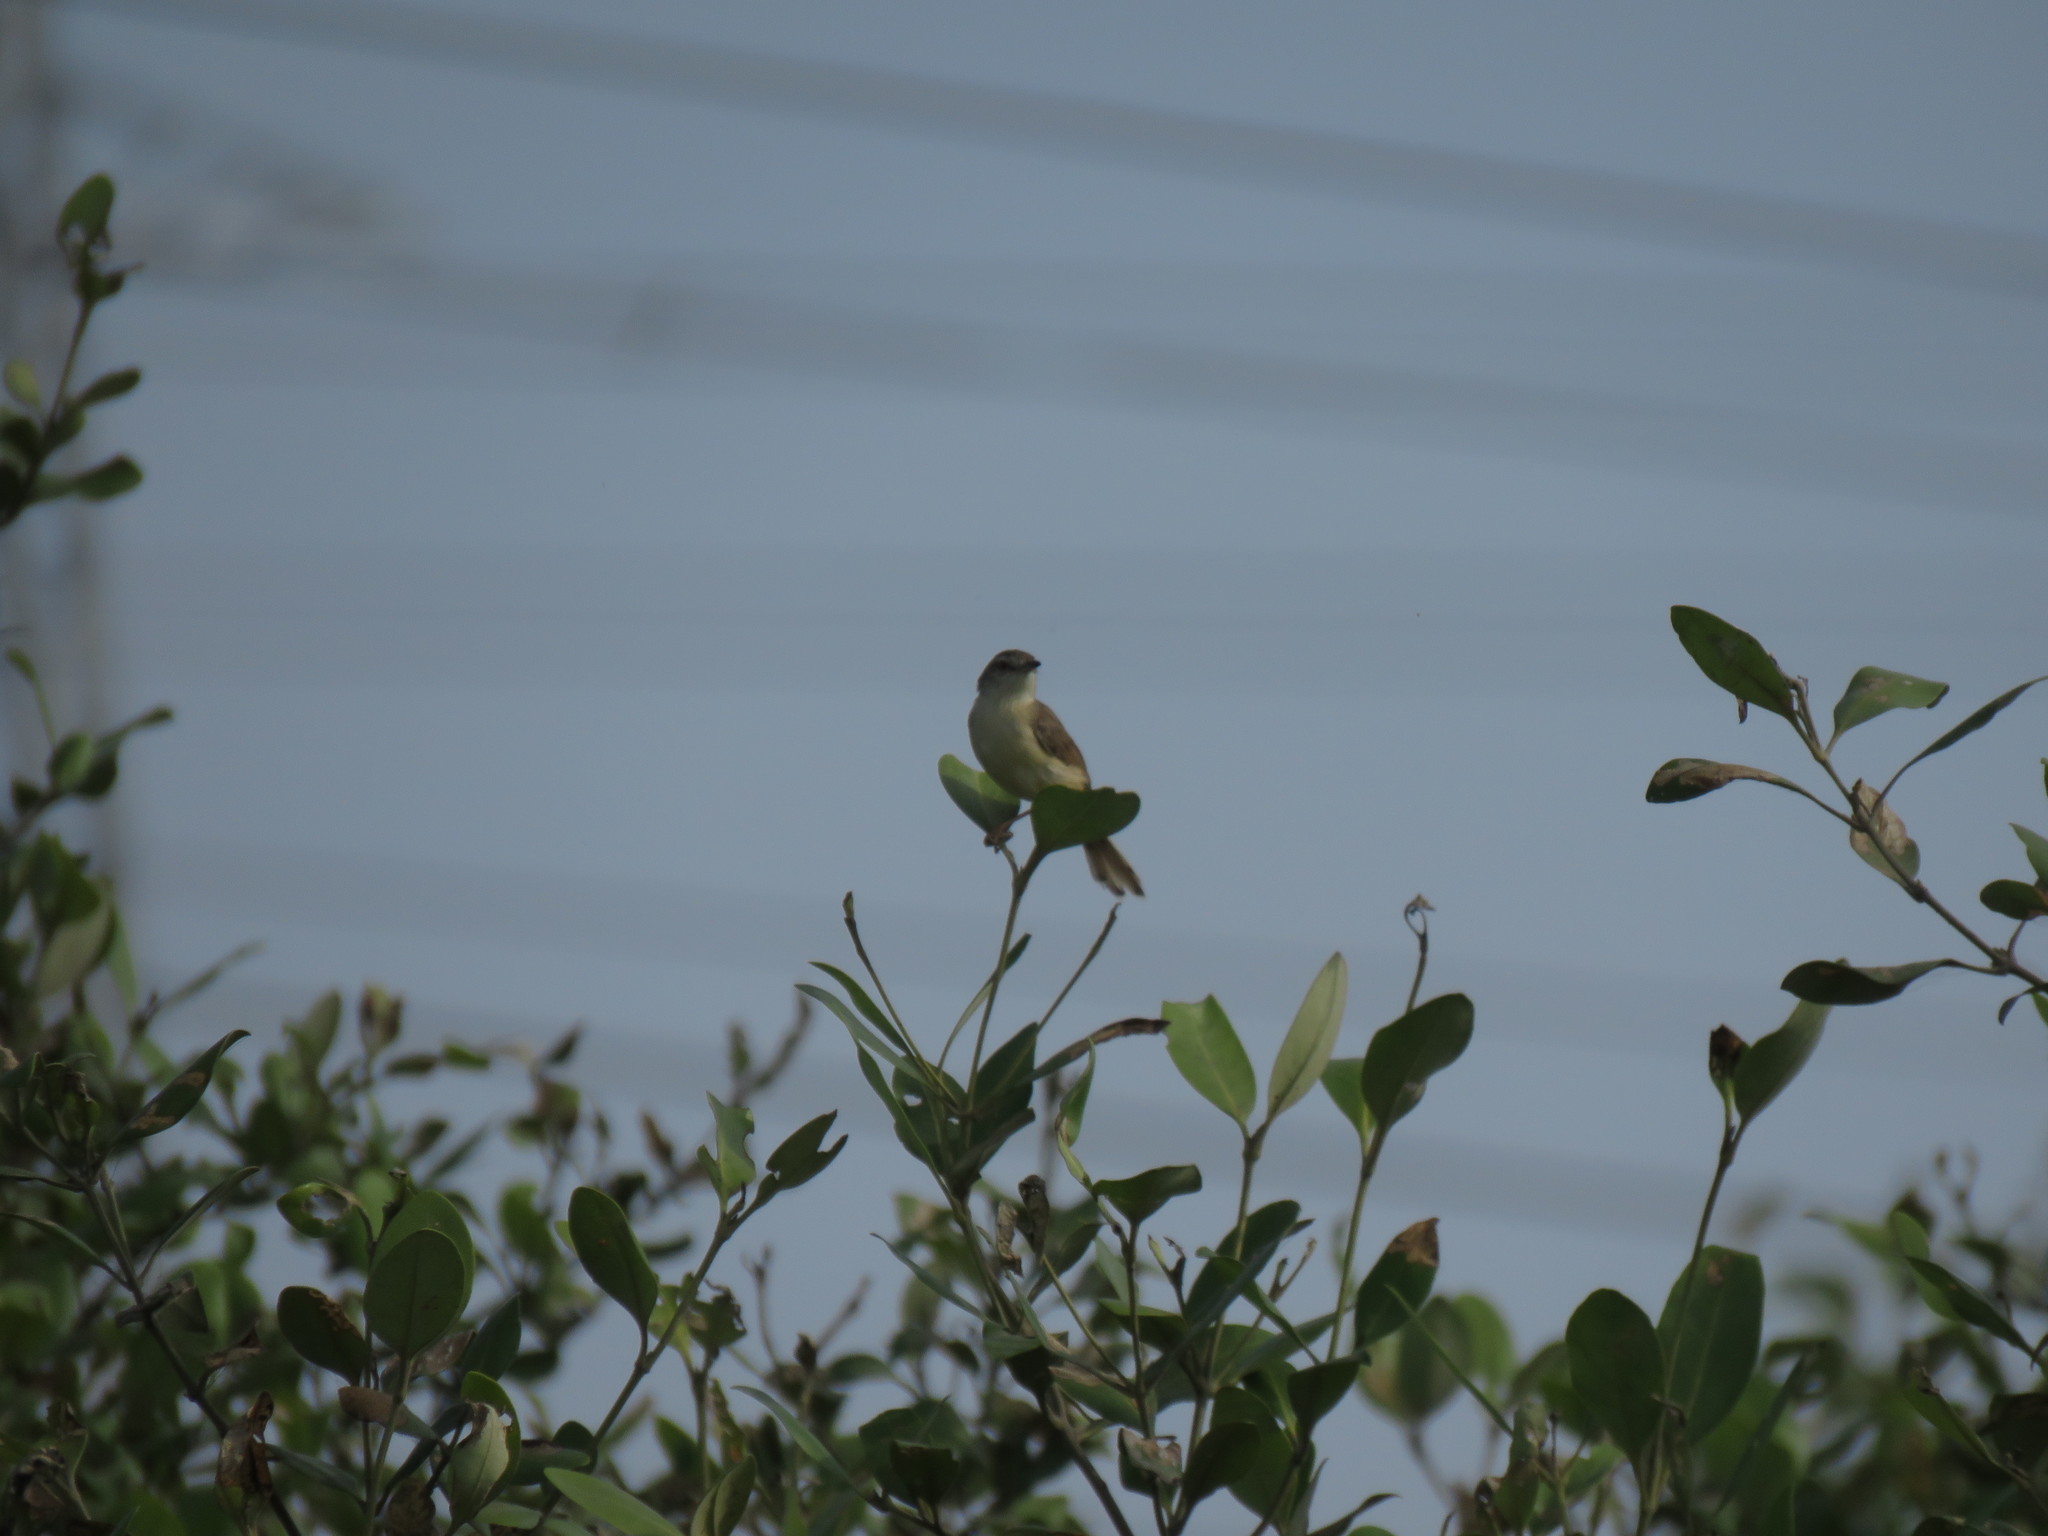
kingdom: Animalia
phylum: Chordata
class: Aves
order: Passeriformes
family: Cisticolidae
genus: Prinia
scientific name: Prinia inornata
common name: Plain prinia
